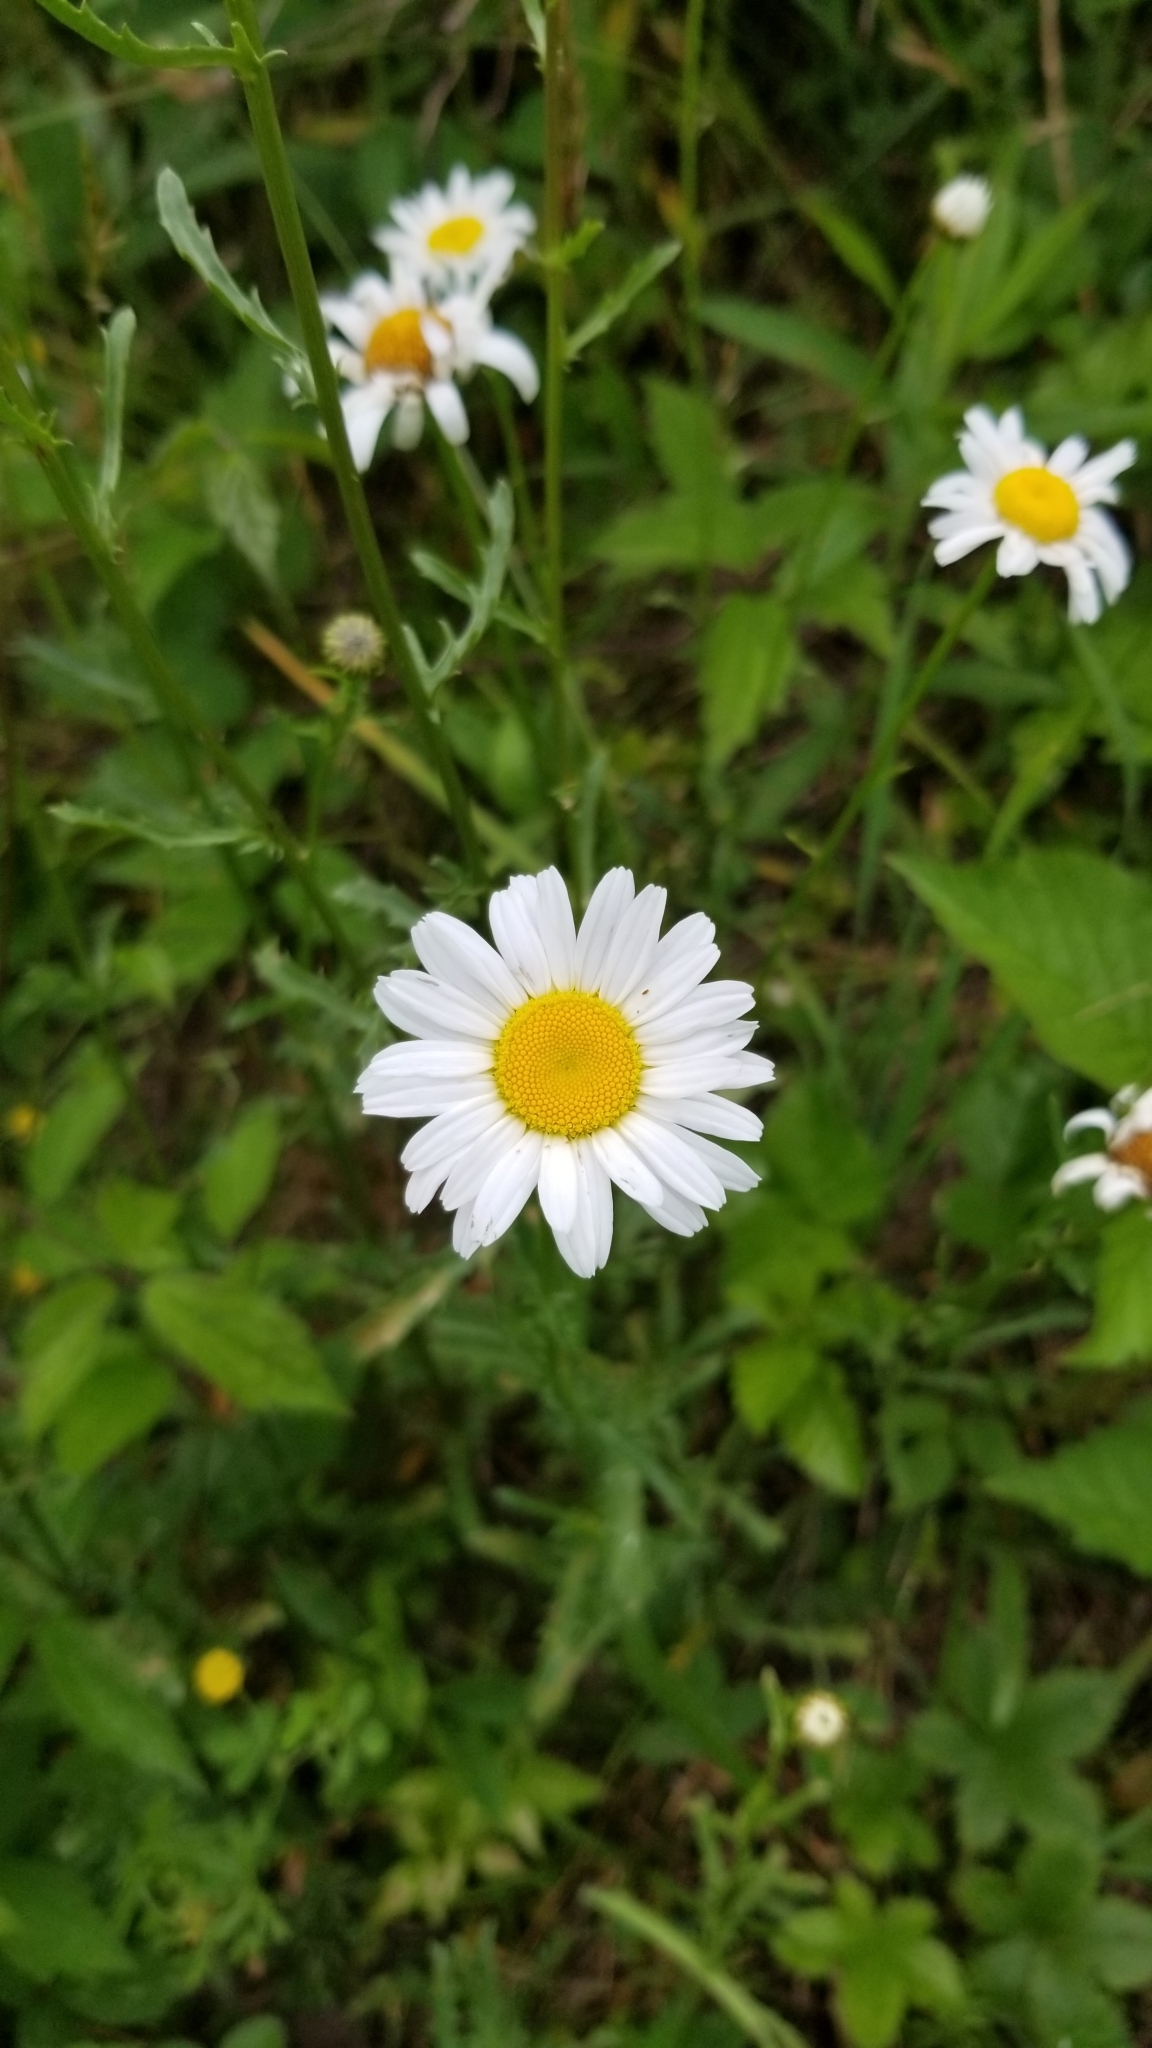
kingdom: Plantae
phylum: Tracheophyta
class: Magnoliopsida
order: Asterales
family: Asteraceae
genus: Leucanthemum
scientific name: Leucanthemum vulgare
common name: Oxeye daisy
